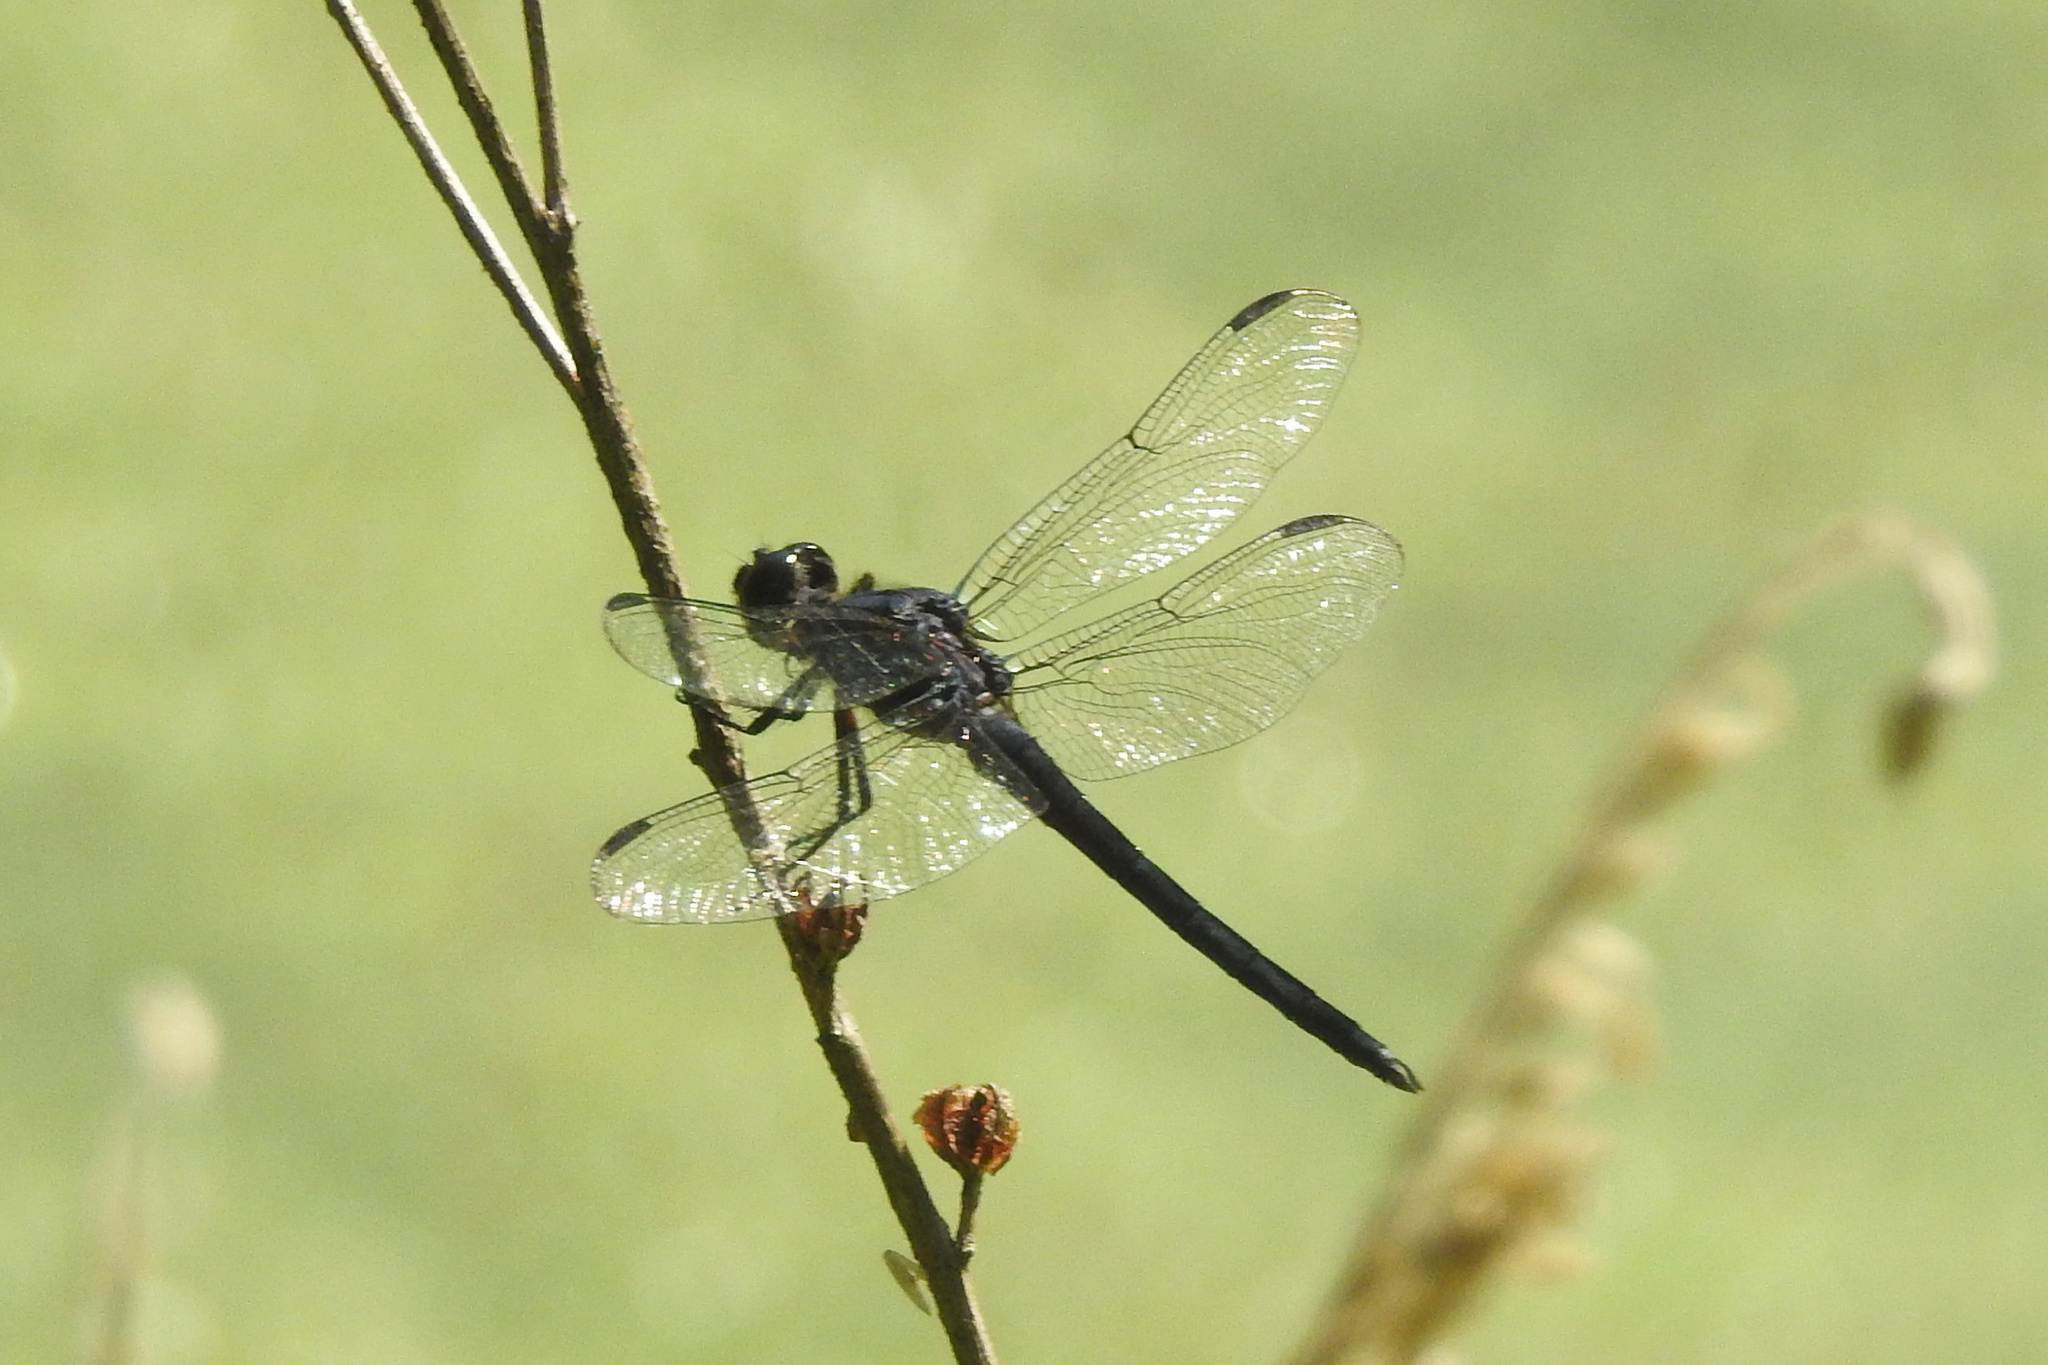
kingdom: Animalia
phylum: Arthropoda
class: Insecta
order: Odonata
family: Libellulidae
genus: Libellula
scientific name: Libellula incesta
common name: Slaty skimmer
